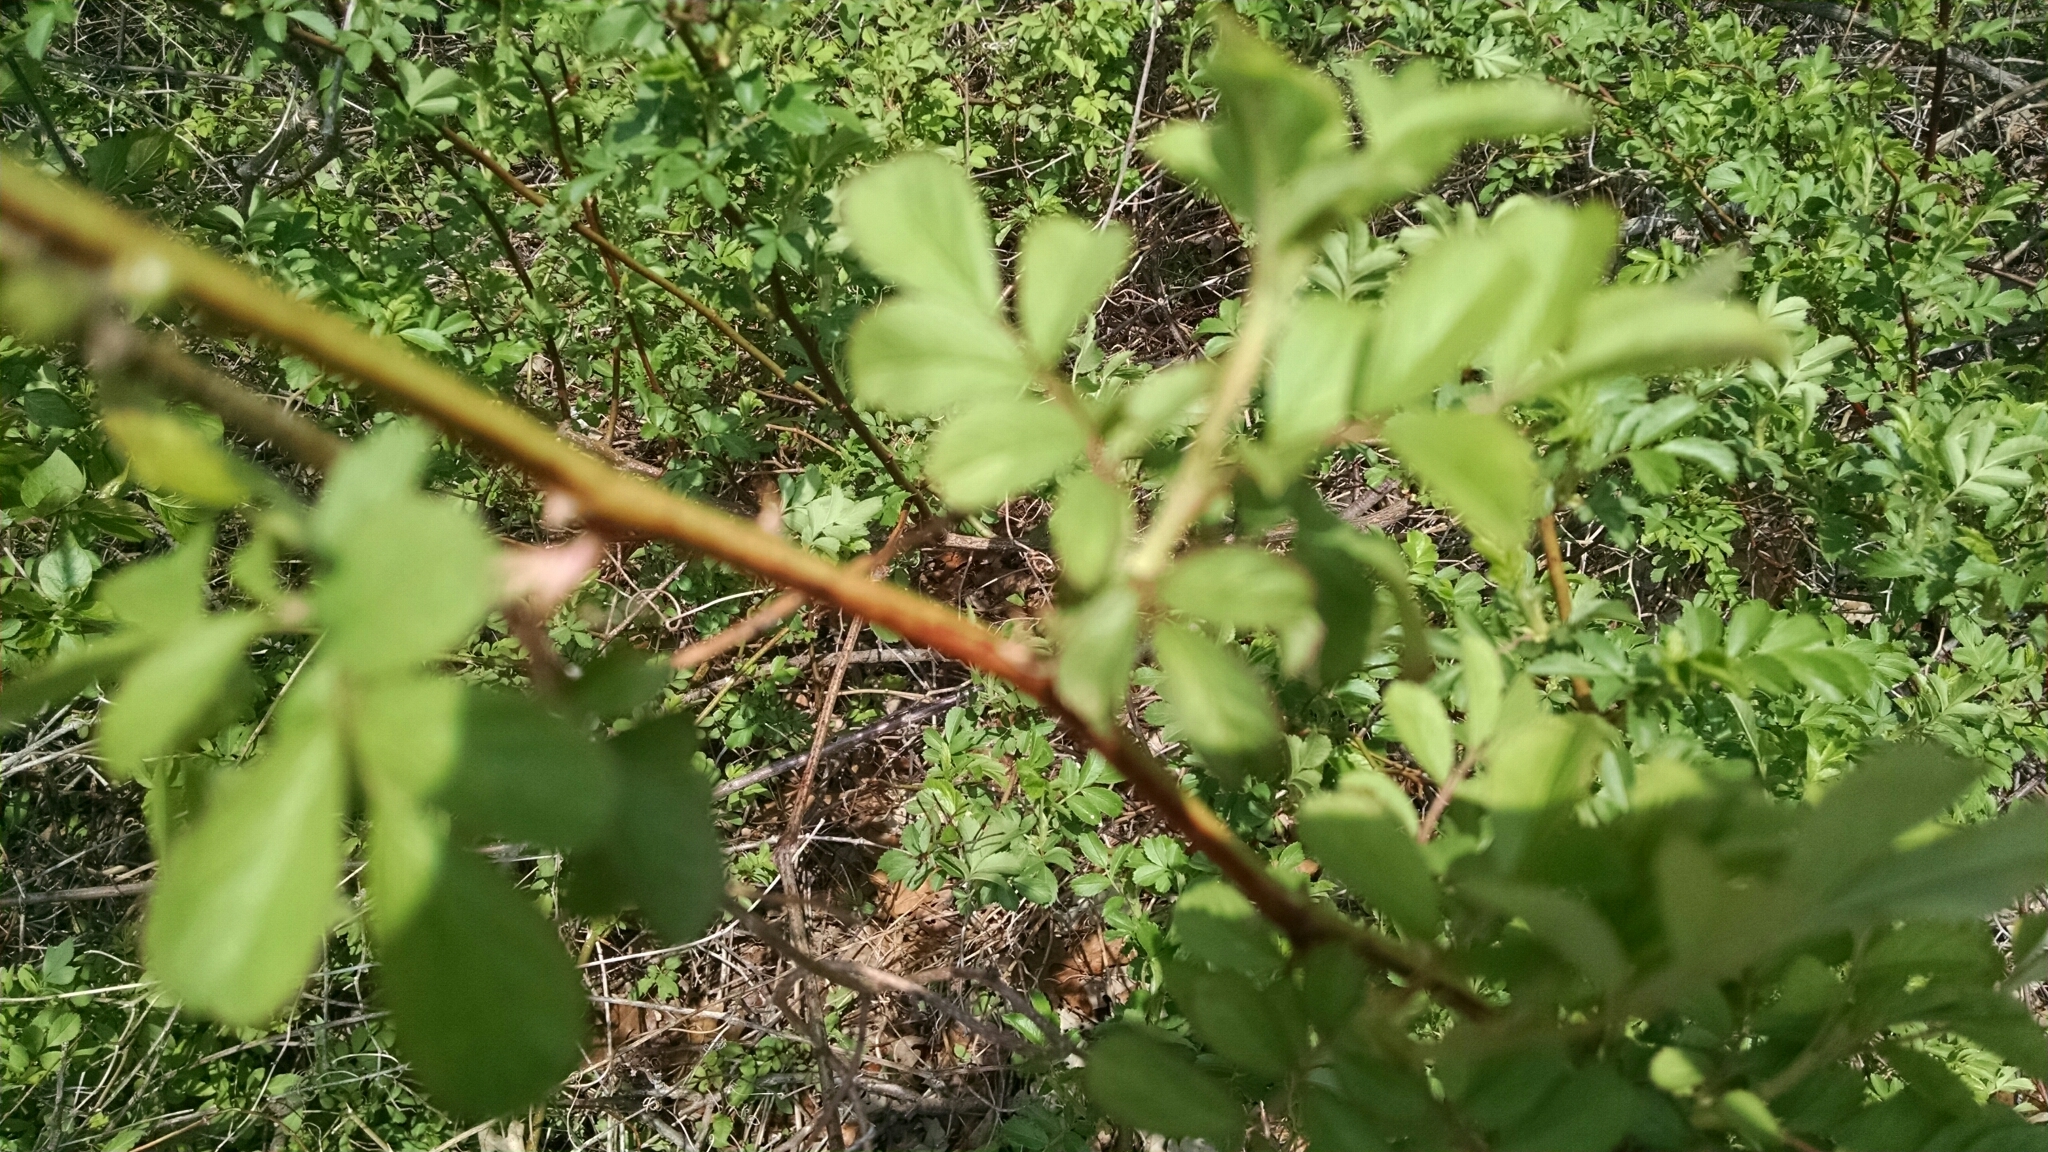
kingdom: Plantae
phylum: Tracheophyta
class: Magnoliopsida
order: Rosales
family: Rosaceae
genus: Rosa
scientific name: Rosa multiflora
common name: Multiflora rose
